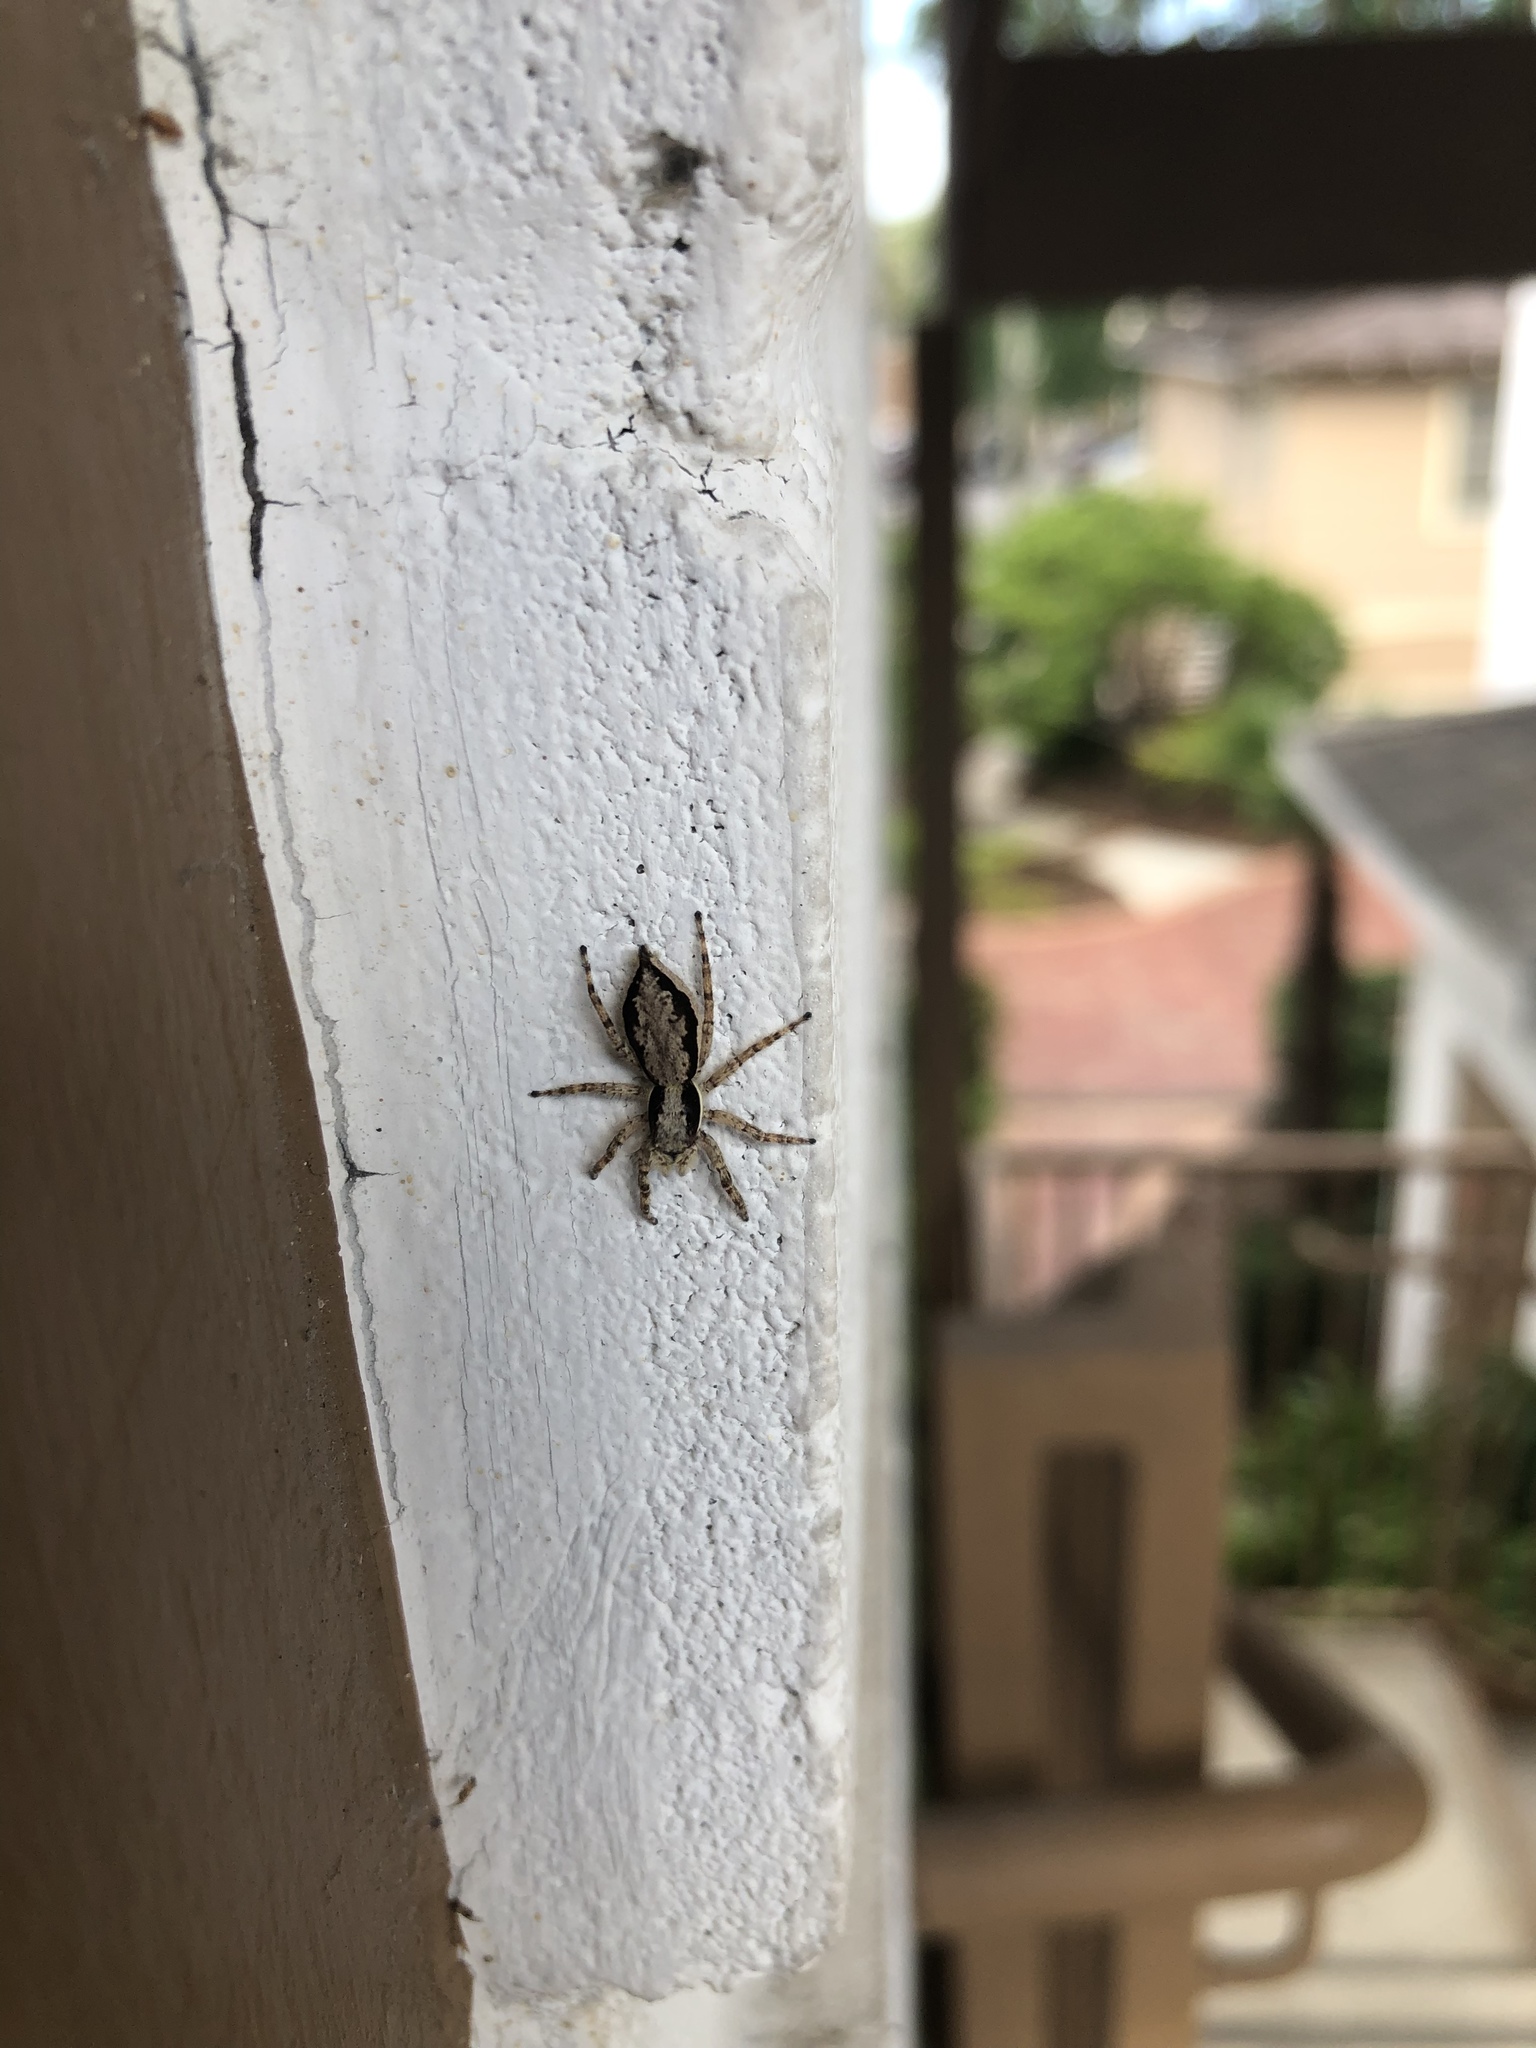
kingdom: Animalia
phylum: Arthropoda
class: Arachnida
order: Araneae
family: Salticidae
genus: Menemerus
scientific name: Menemerus bivittatus
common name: Gray wall jumper
